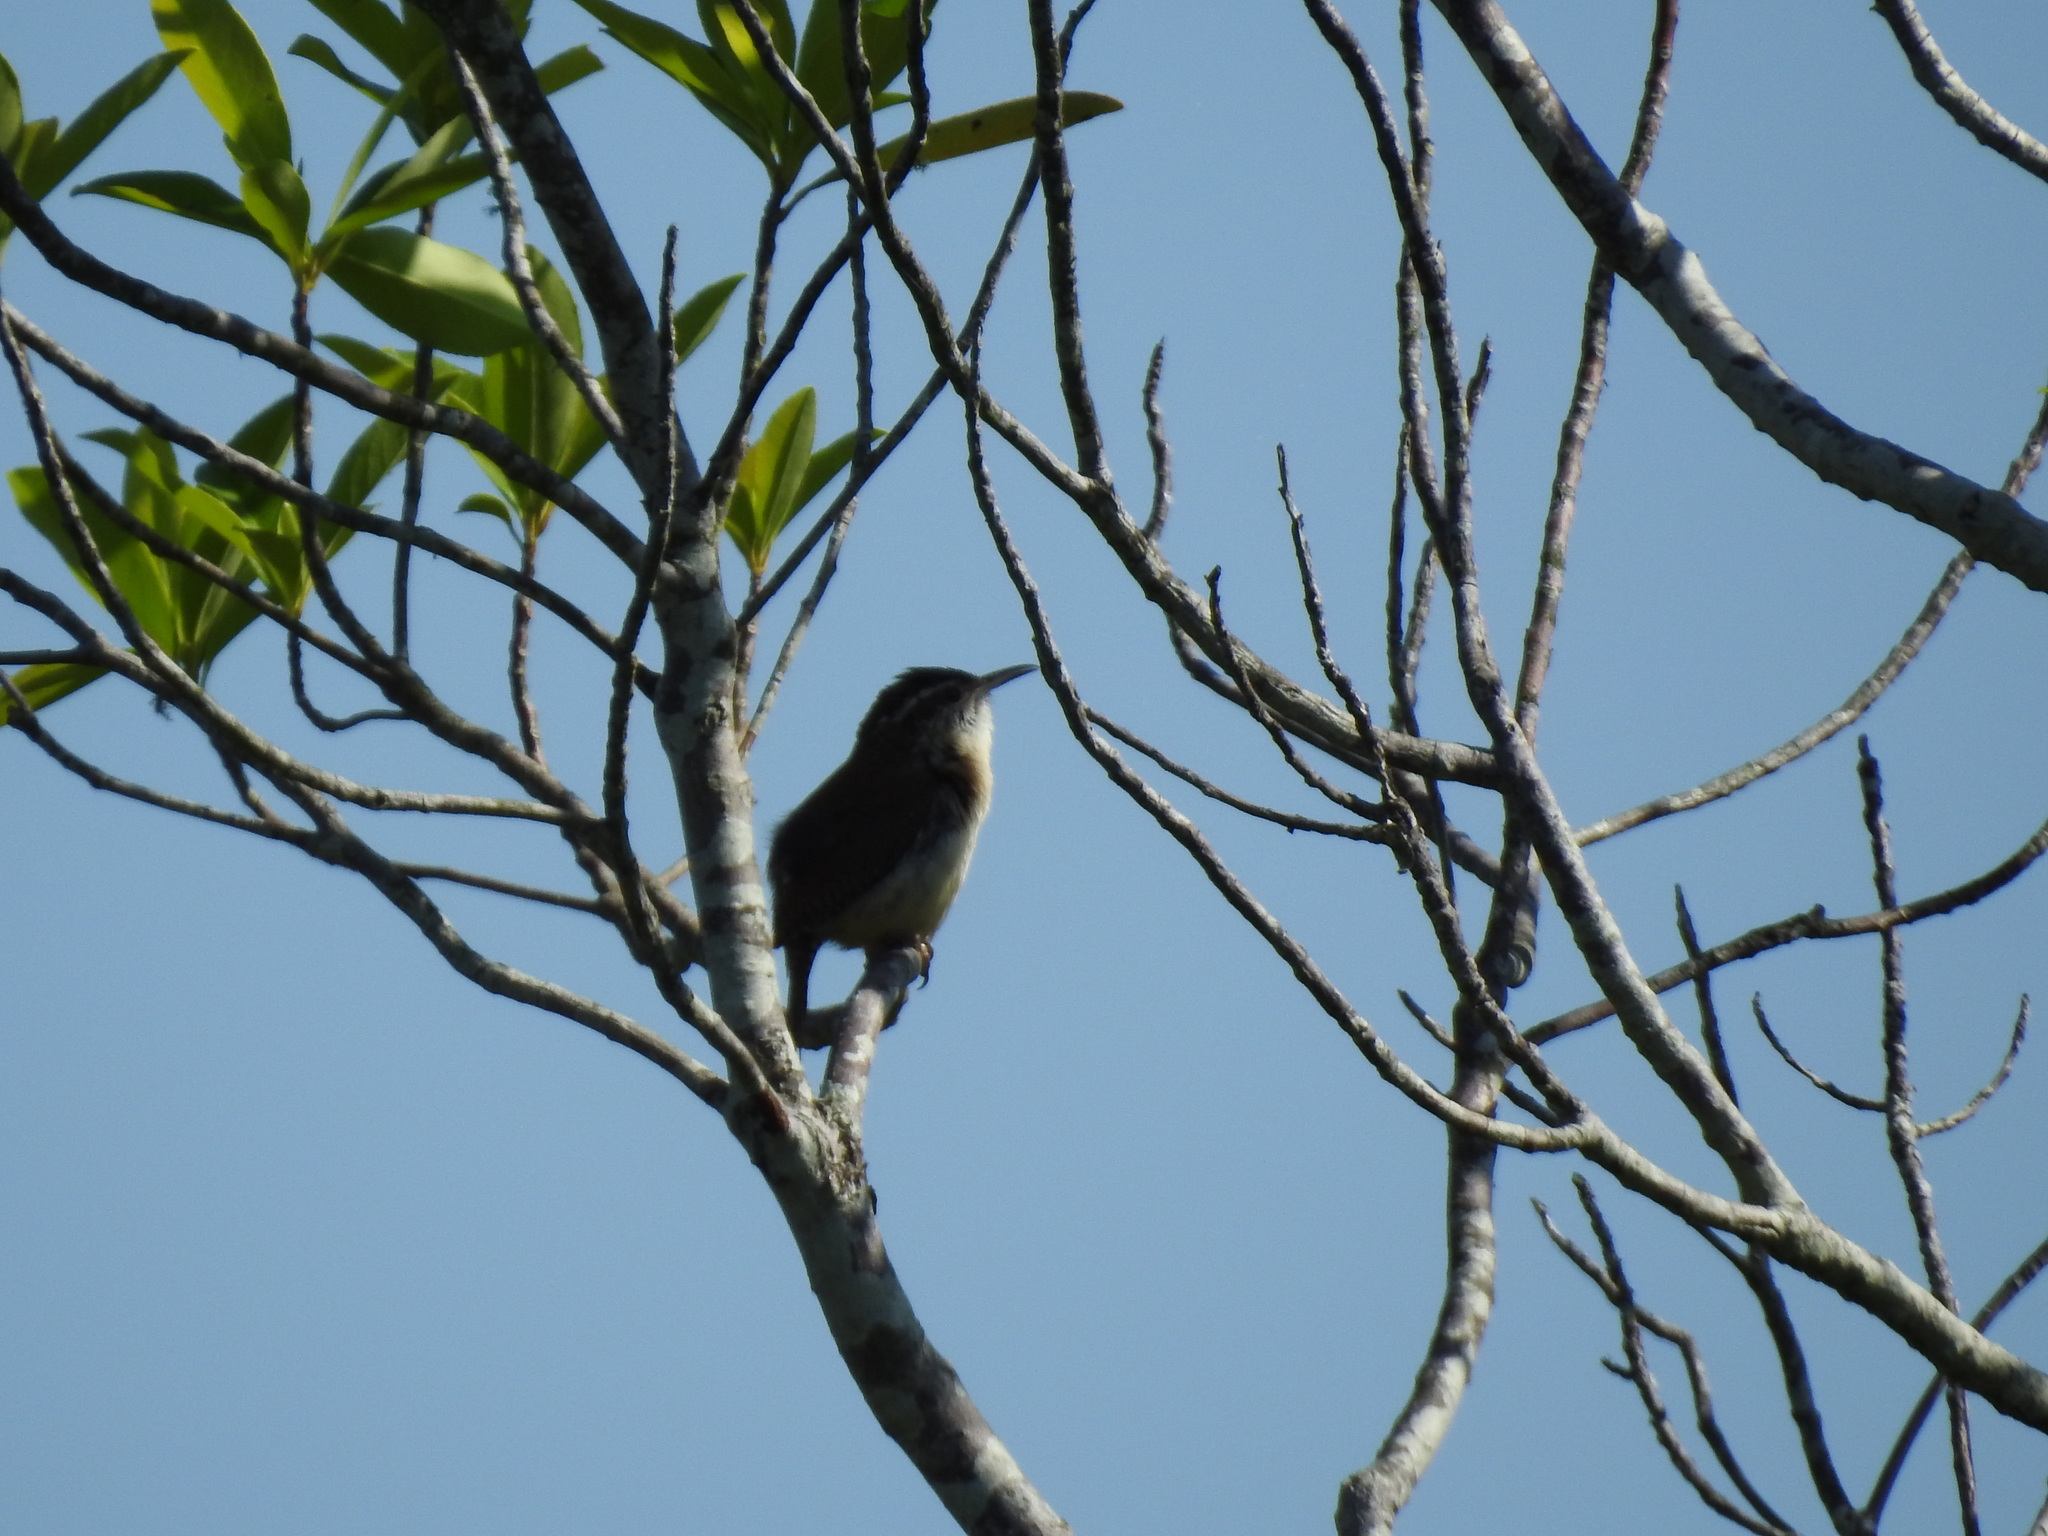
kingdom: Animalia
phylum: Chordata
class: Aves
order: Passeriformes
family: Troglodytidae
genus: Thryothorus
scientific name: Thryothorus ludovicianus
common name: Carolina wren
